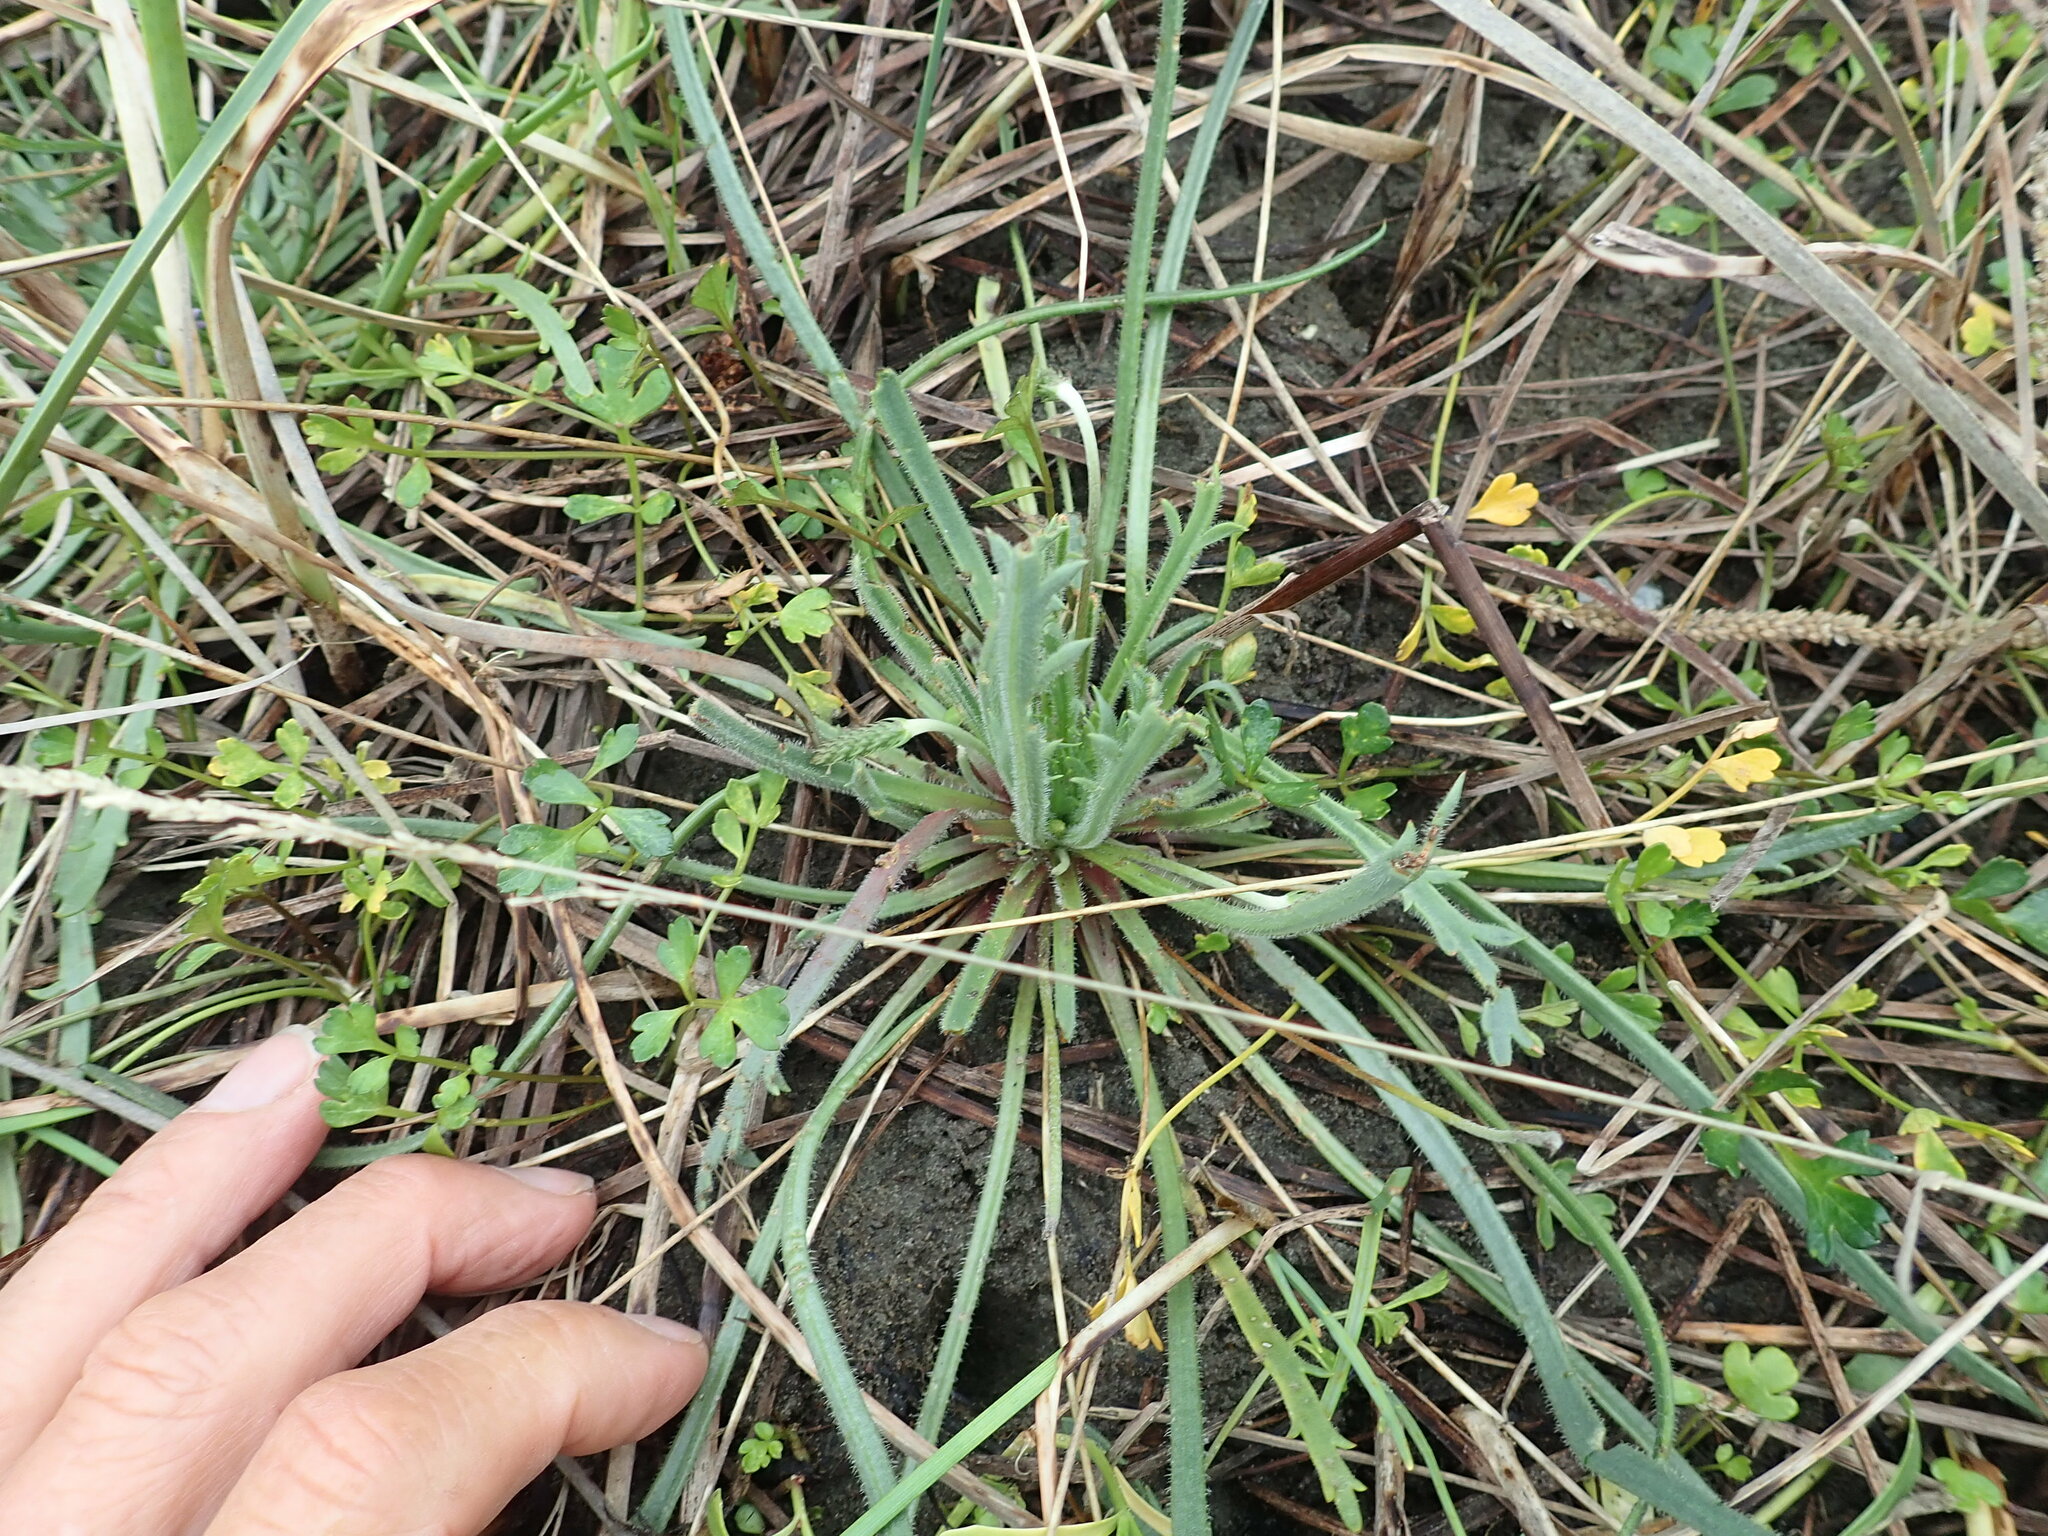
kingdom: Plantae
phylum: Tracheophyta
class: Magnoliopsida
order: Lamiales
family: Plantaginaceae
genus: Plantago
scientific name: Plantago coronopus
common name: Buck's-horn plantain
